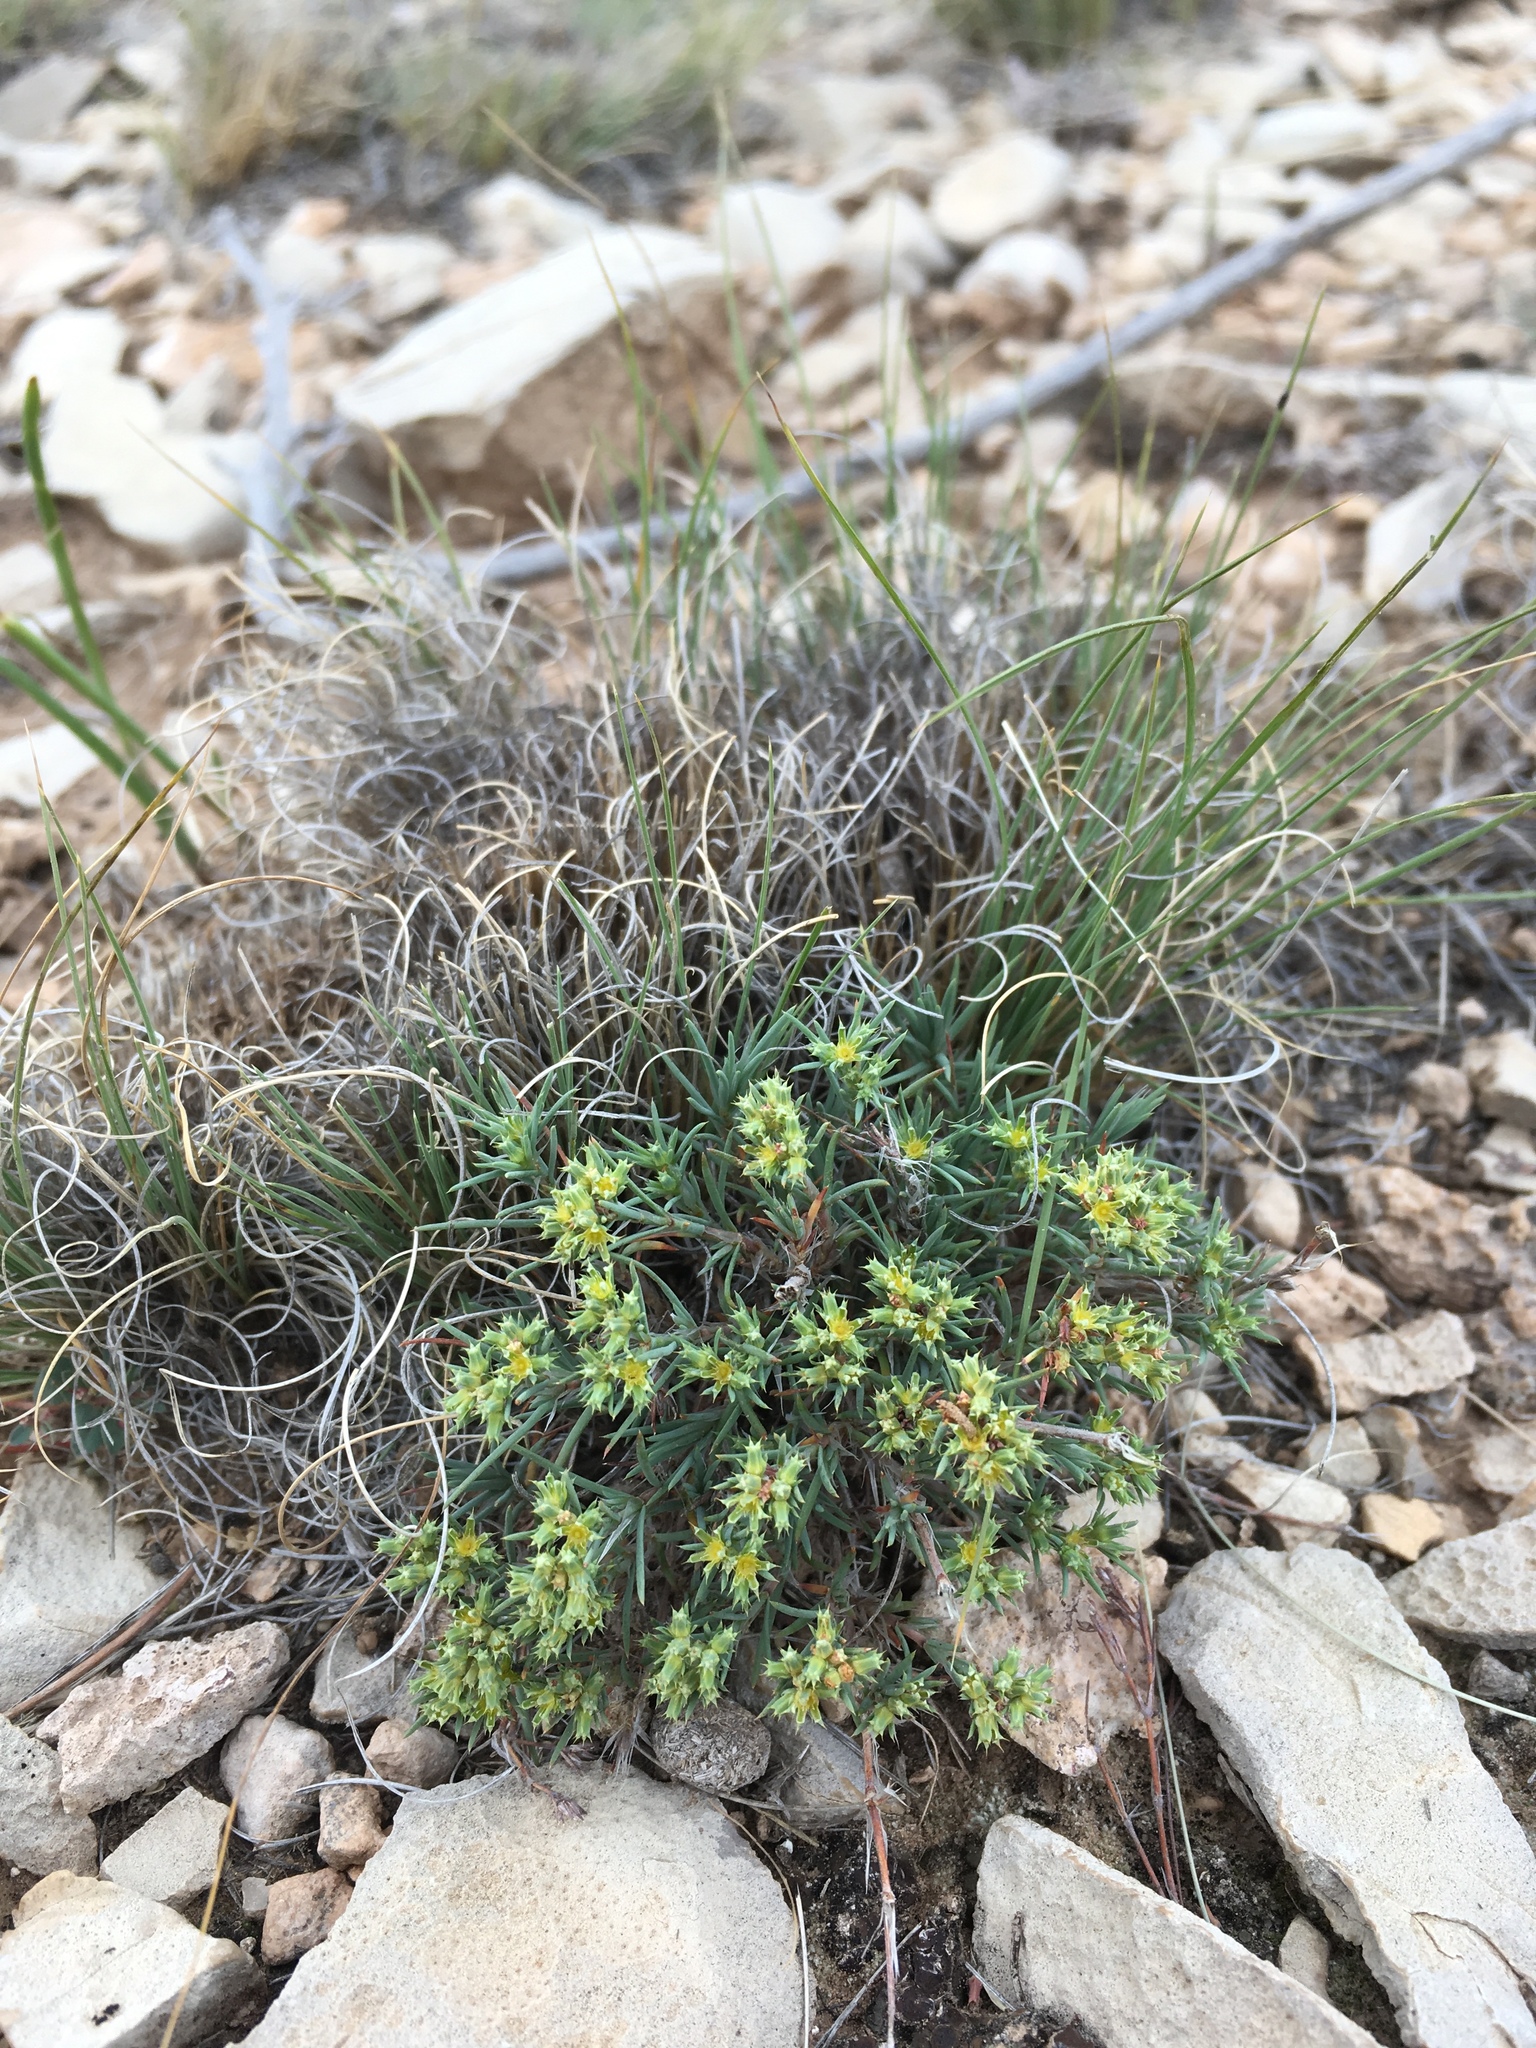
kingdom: Plantae
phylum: Tracheophyta
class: Magnoliopsida
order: Caryophyllales
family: Caryophyllaceae
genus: Paronychia
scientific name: Paronychia jamesii
